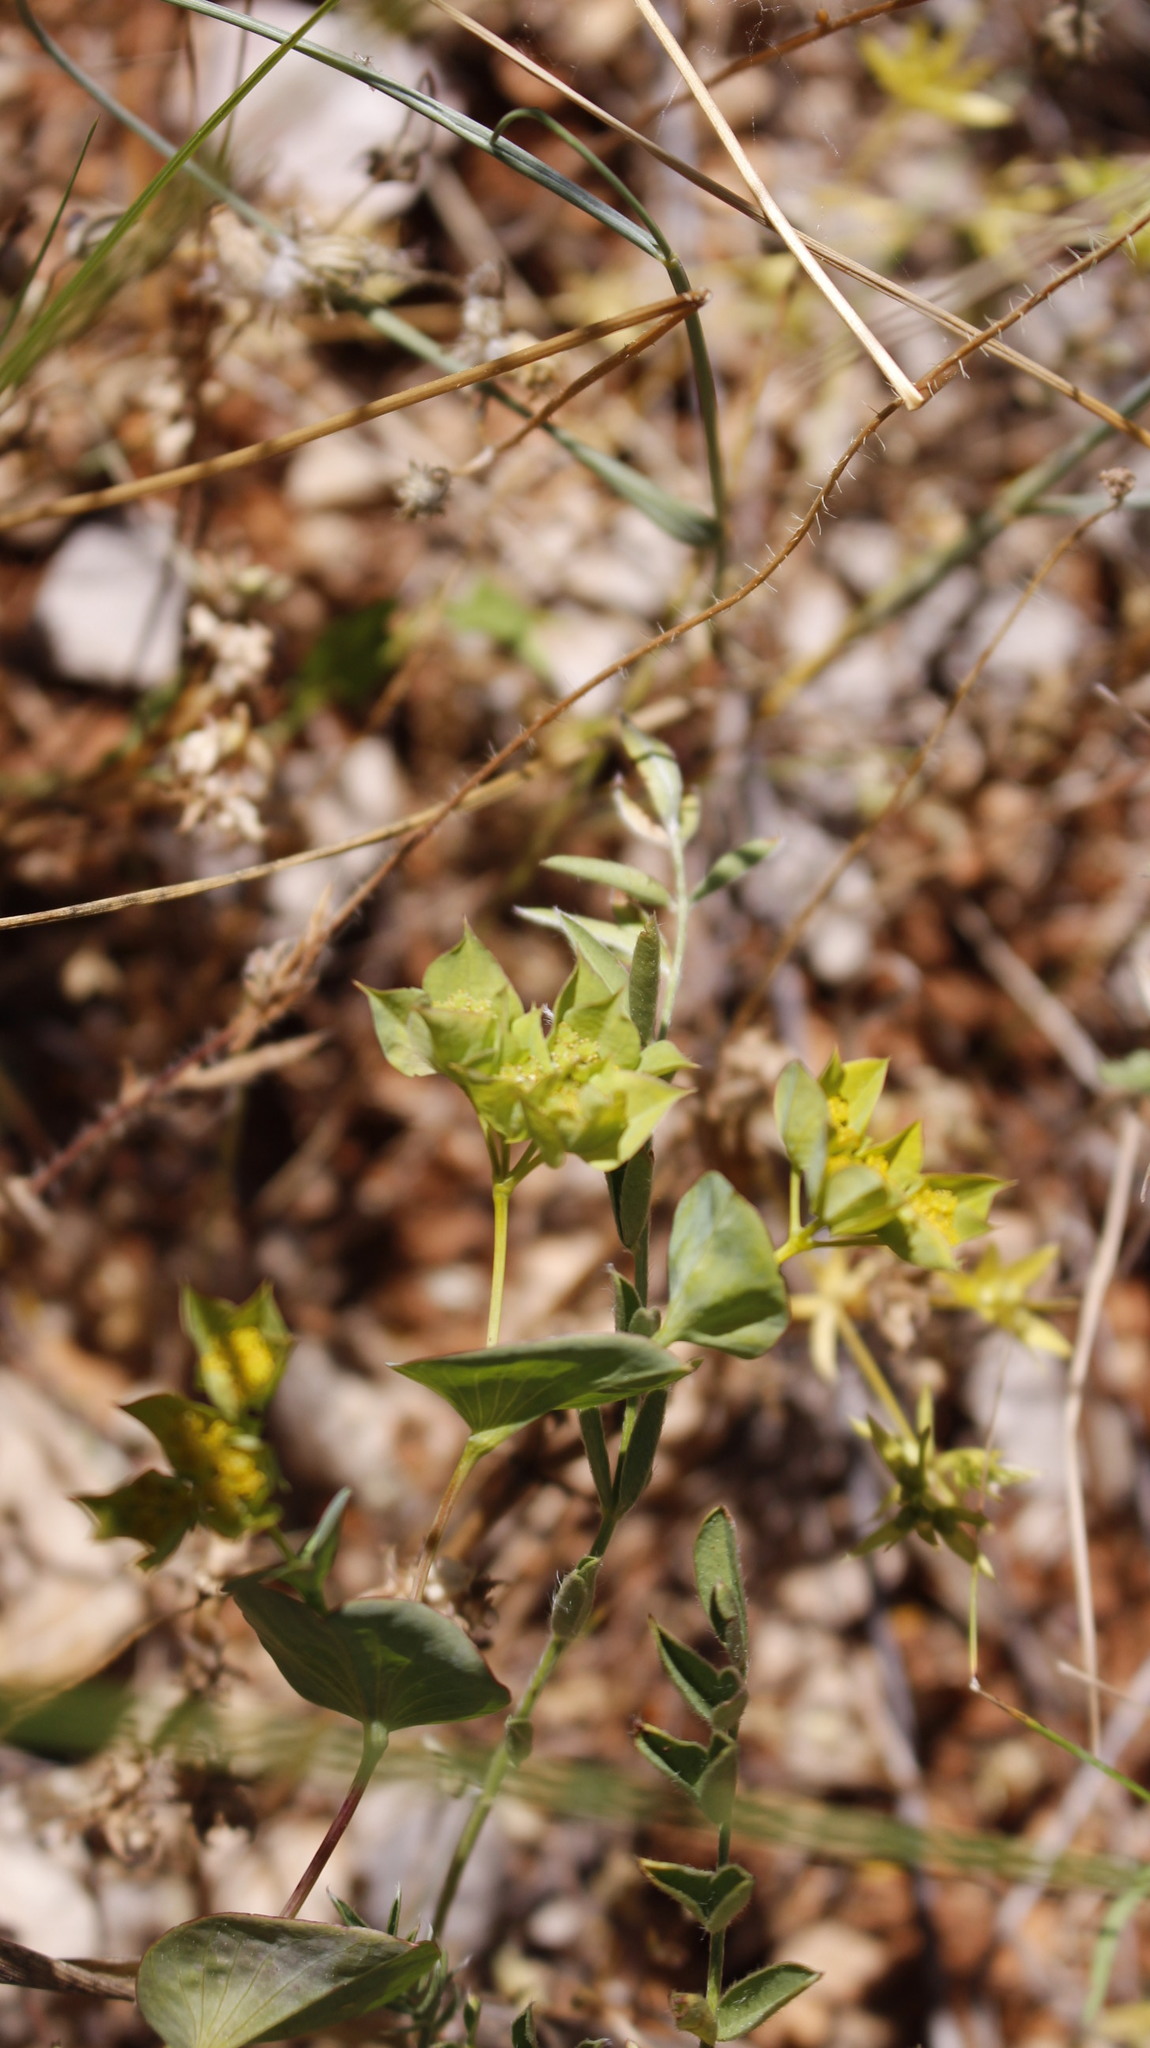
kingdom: Plantae
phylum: Tracheophyta
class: Magnoliopsida
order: Apiales
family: Apiaceae
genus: Bupleurum
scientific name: Bupleurum rotundifolium
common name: Thorow-wax
